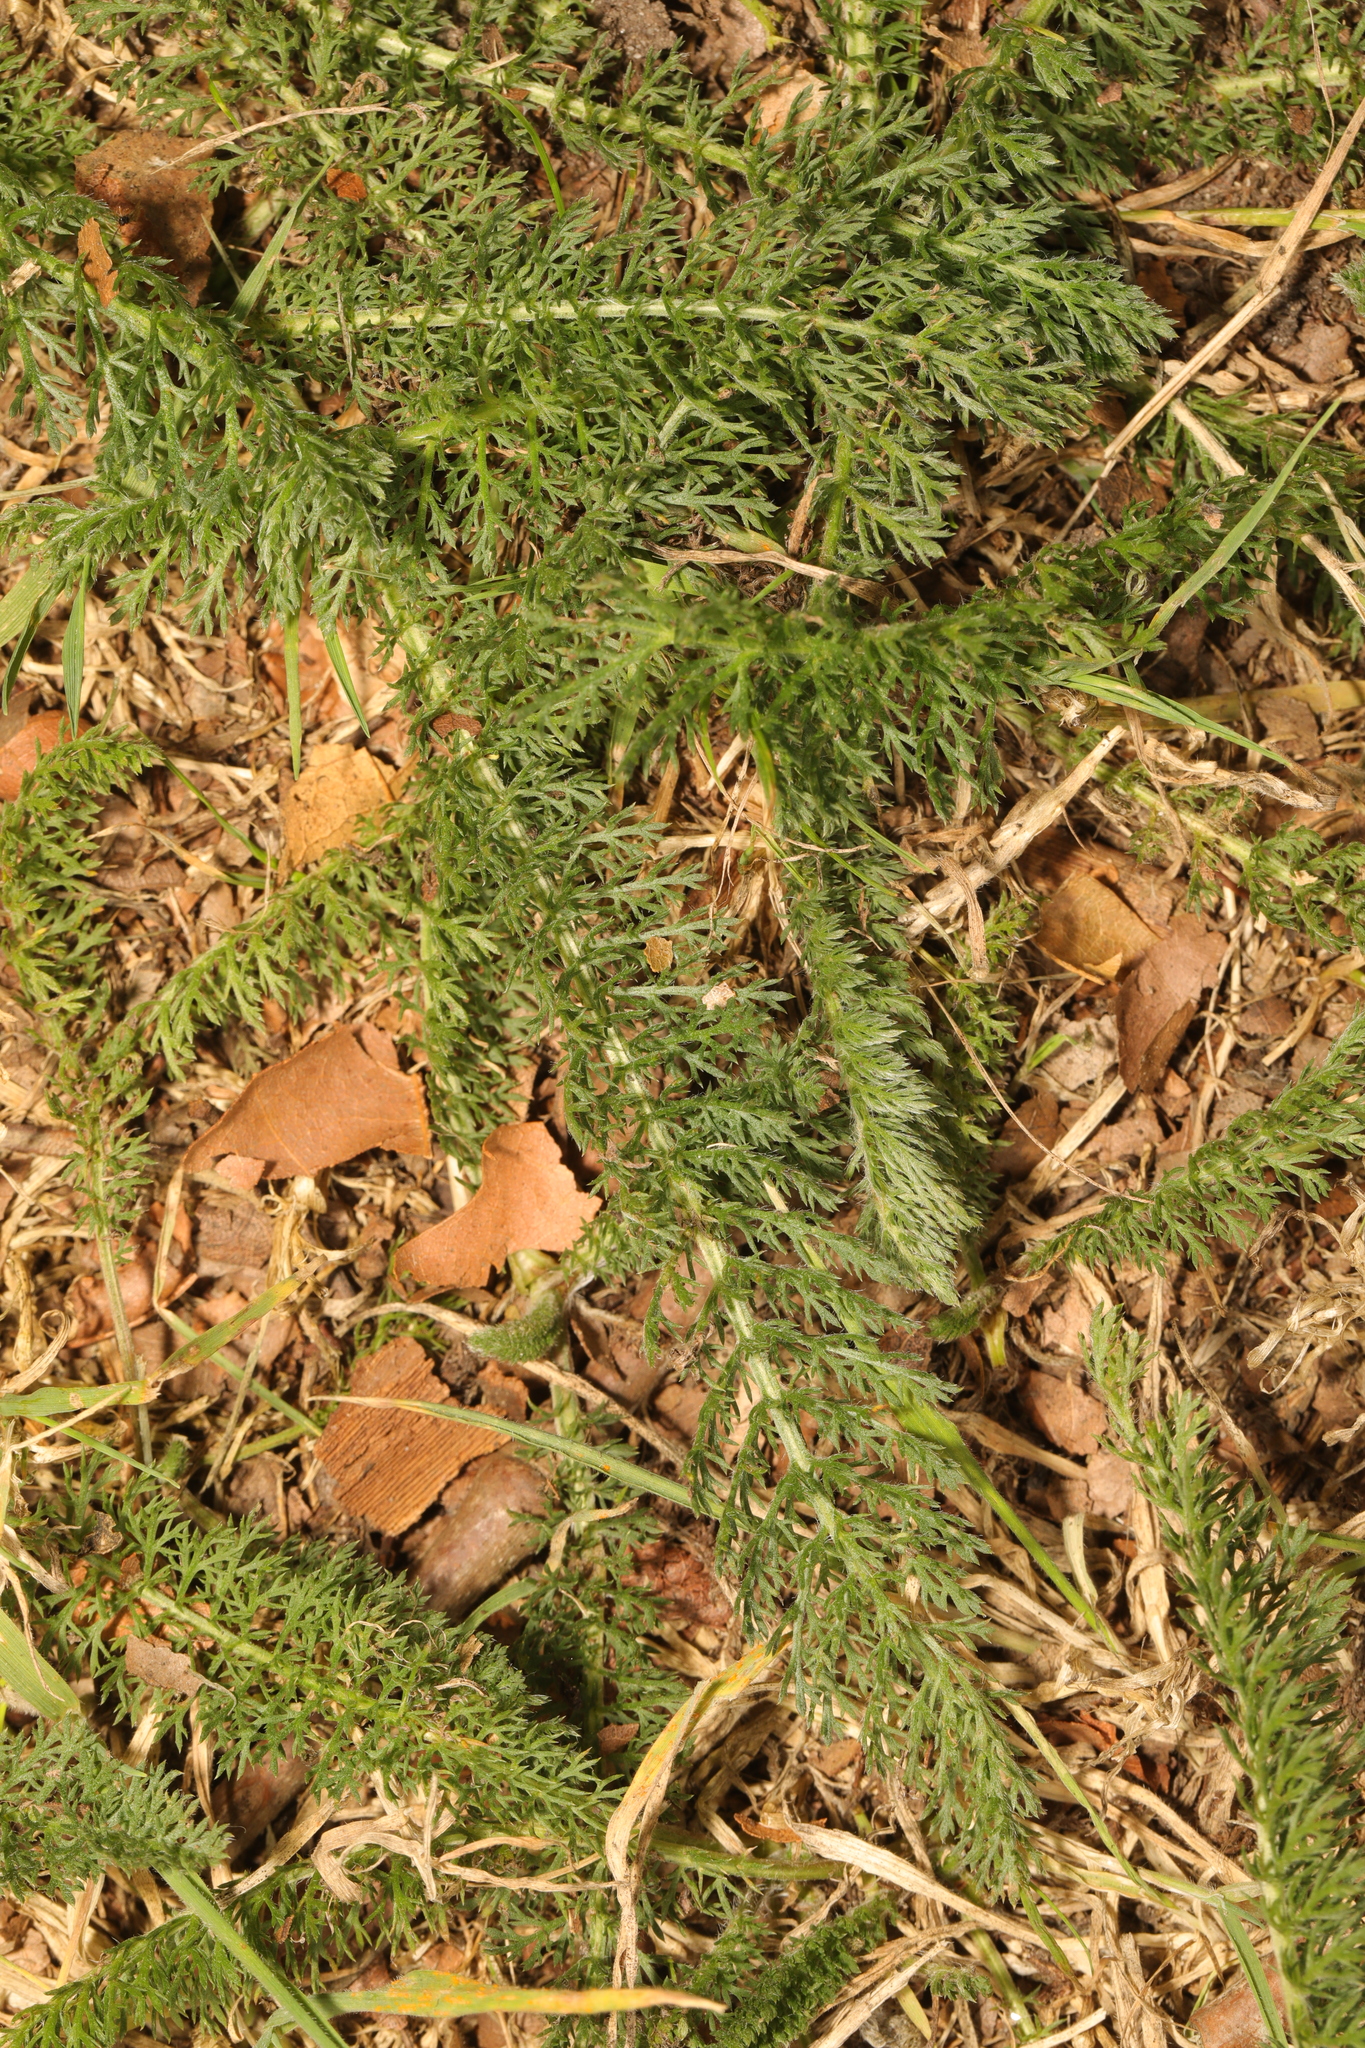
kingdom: Plantae
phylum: Tracheophyta
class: Magnoliopsida
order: Asterales
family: Asteraceae
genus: Achillea
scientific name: Achillea millefolium
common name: Yarrow
